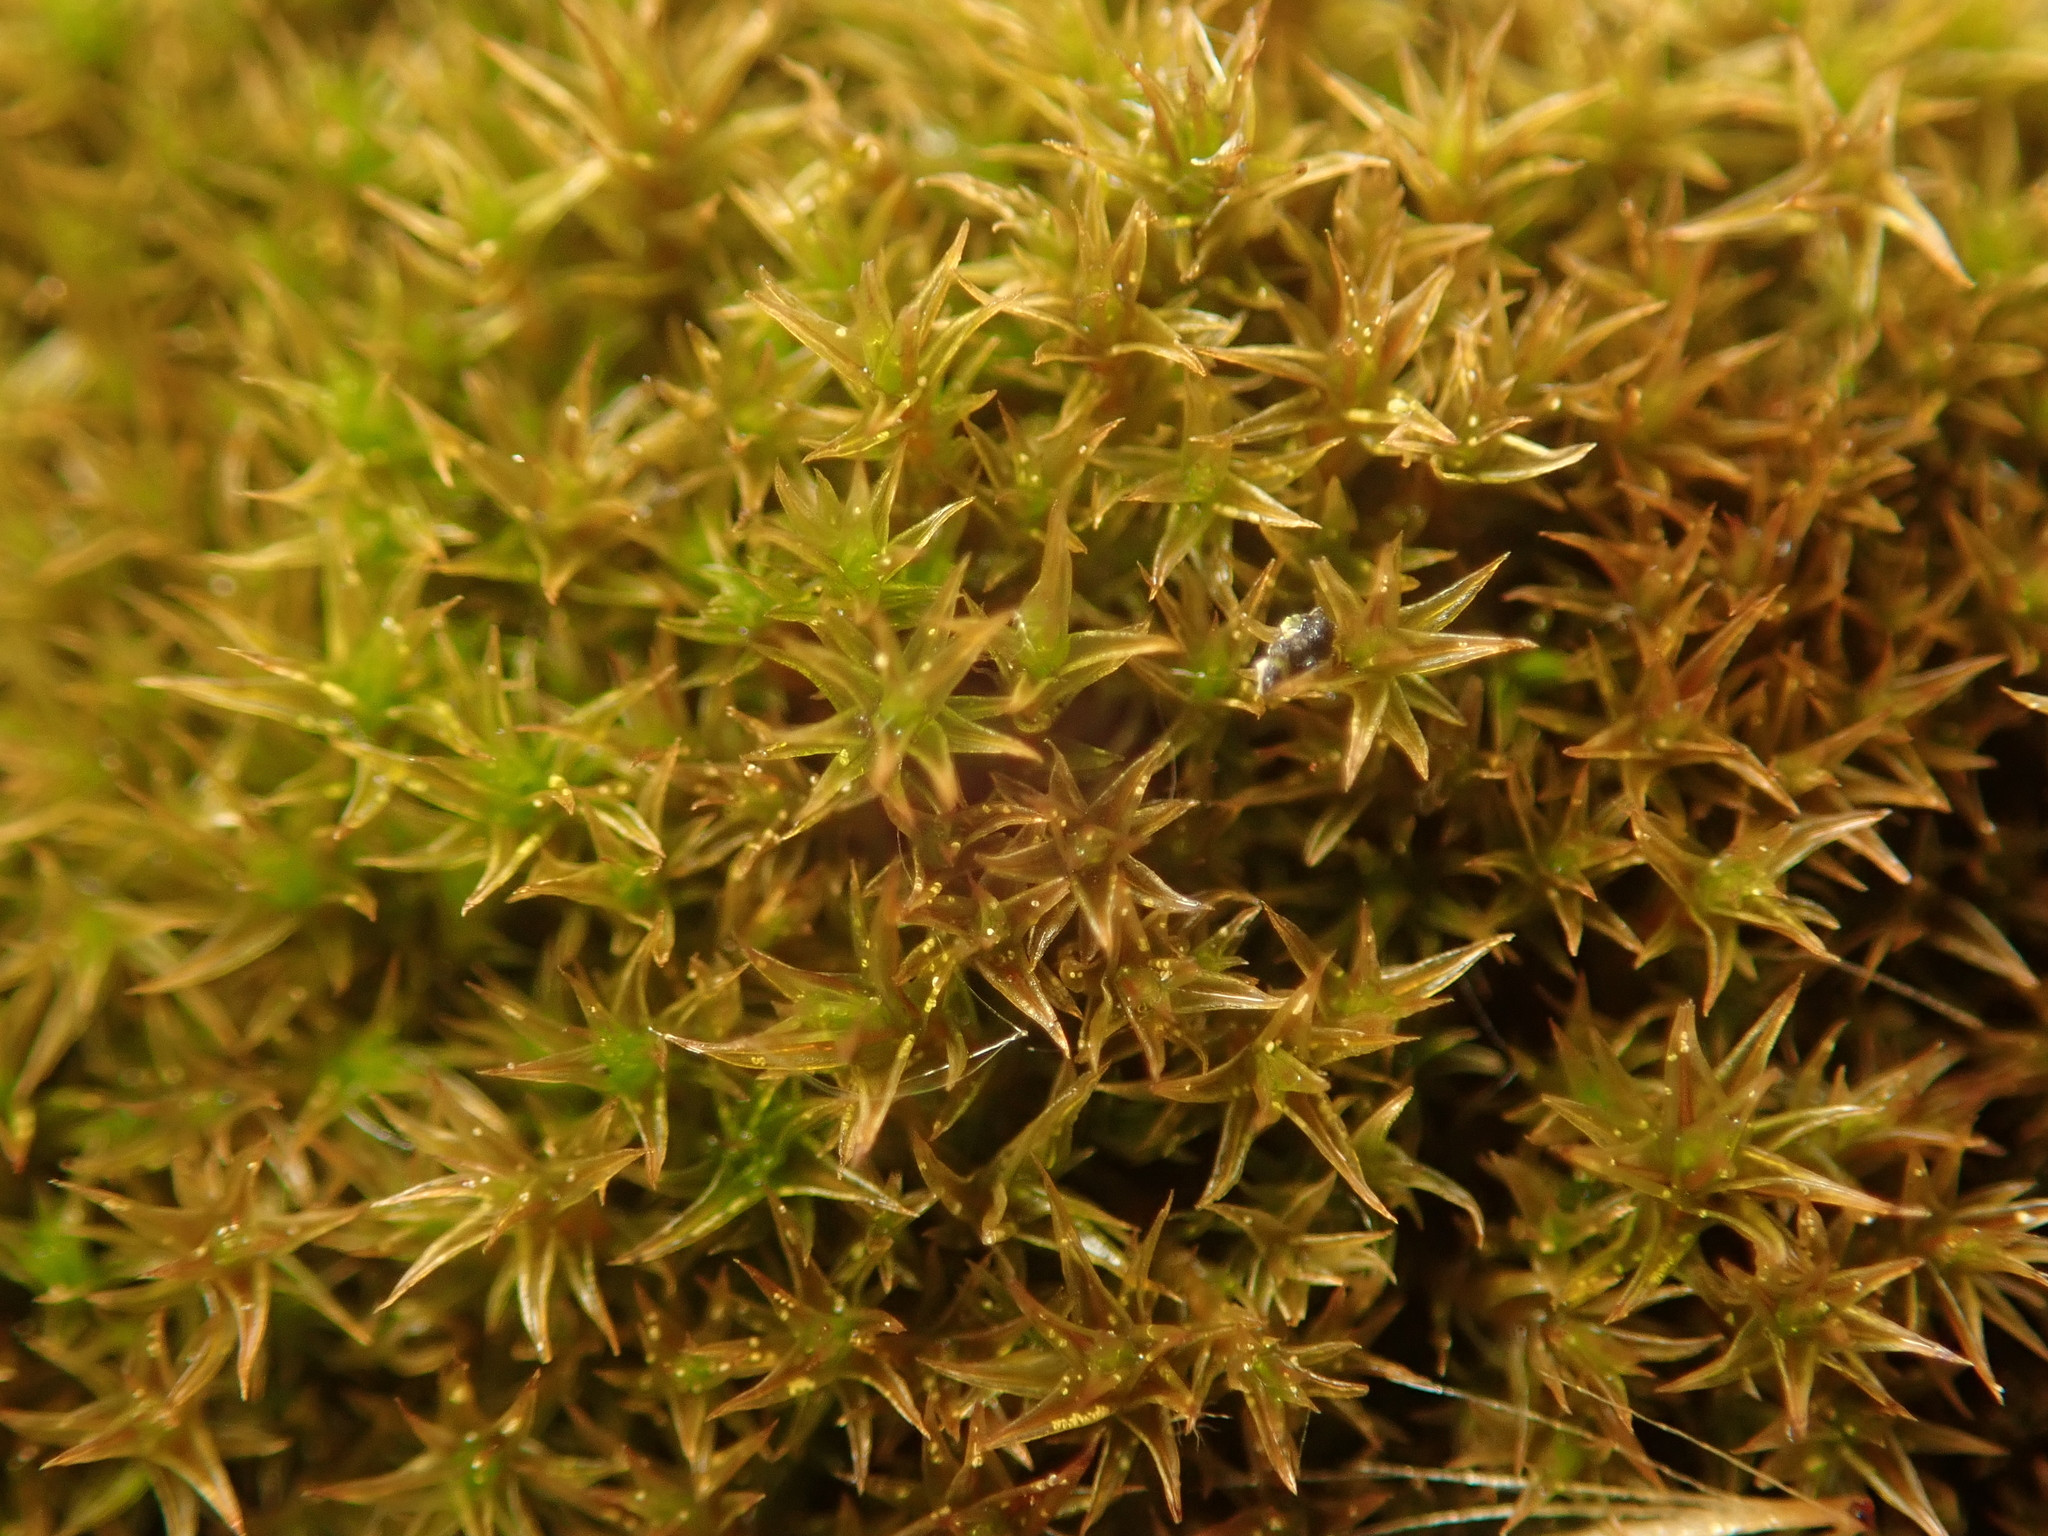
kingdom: Plantae
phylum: Bryophyta
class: Bryopsida
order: Dicranales
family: Ditrichaceae
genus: Ceratodon
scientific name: Ceratodon purpureus
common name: Redshank
